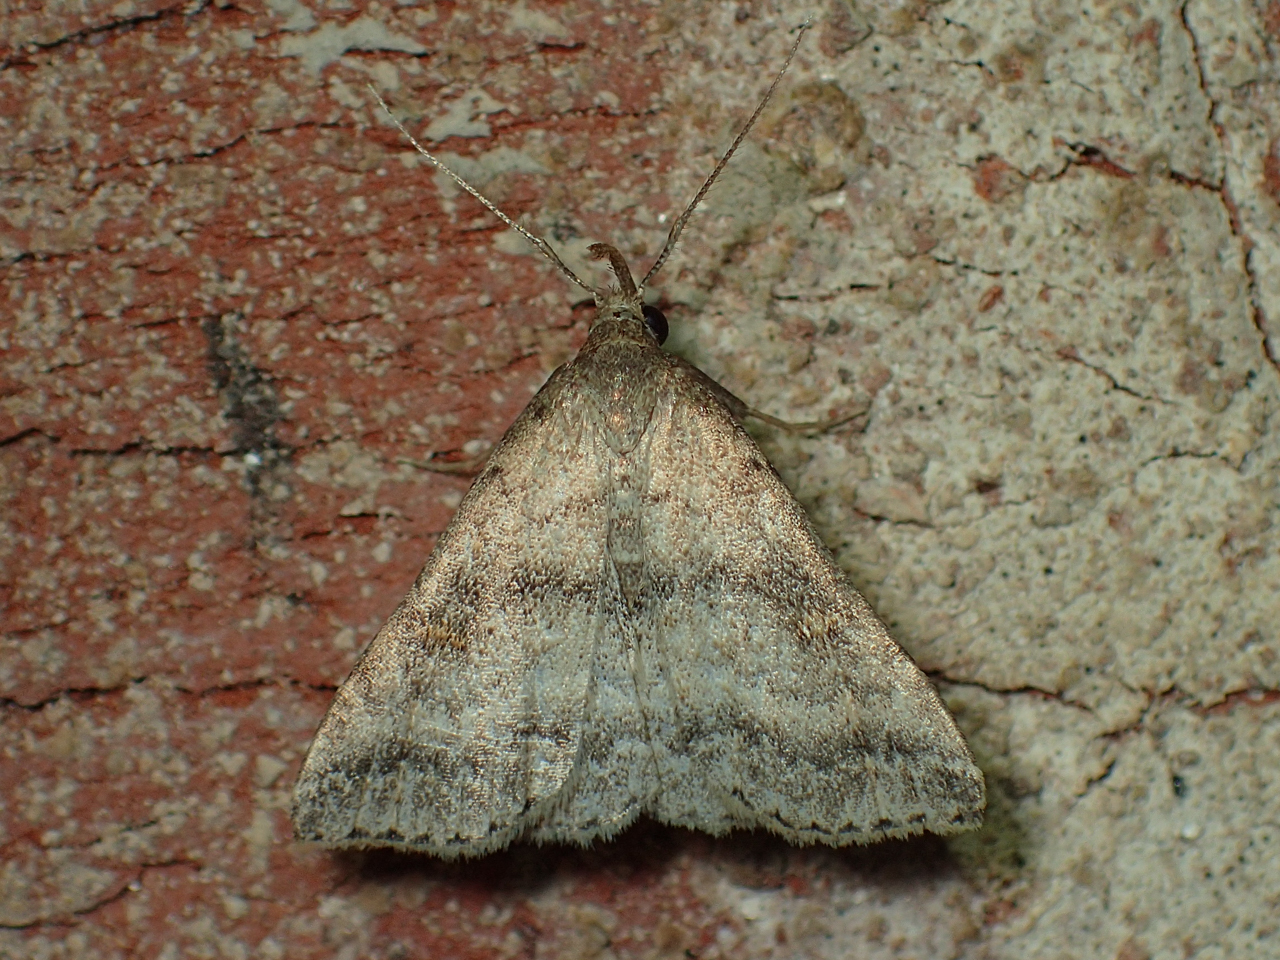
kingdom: Animalia
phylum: Arthropoda
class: Insecta
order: Lepidoptera
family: Erebidae
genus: Tetanolita
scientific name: Tetanolita floridana
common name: Florida tetanolita moth
